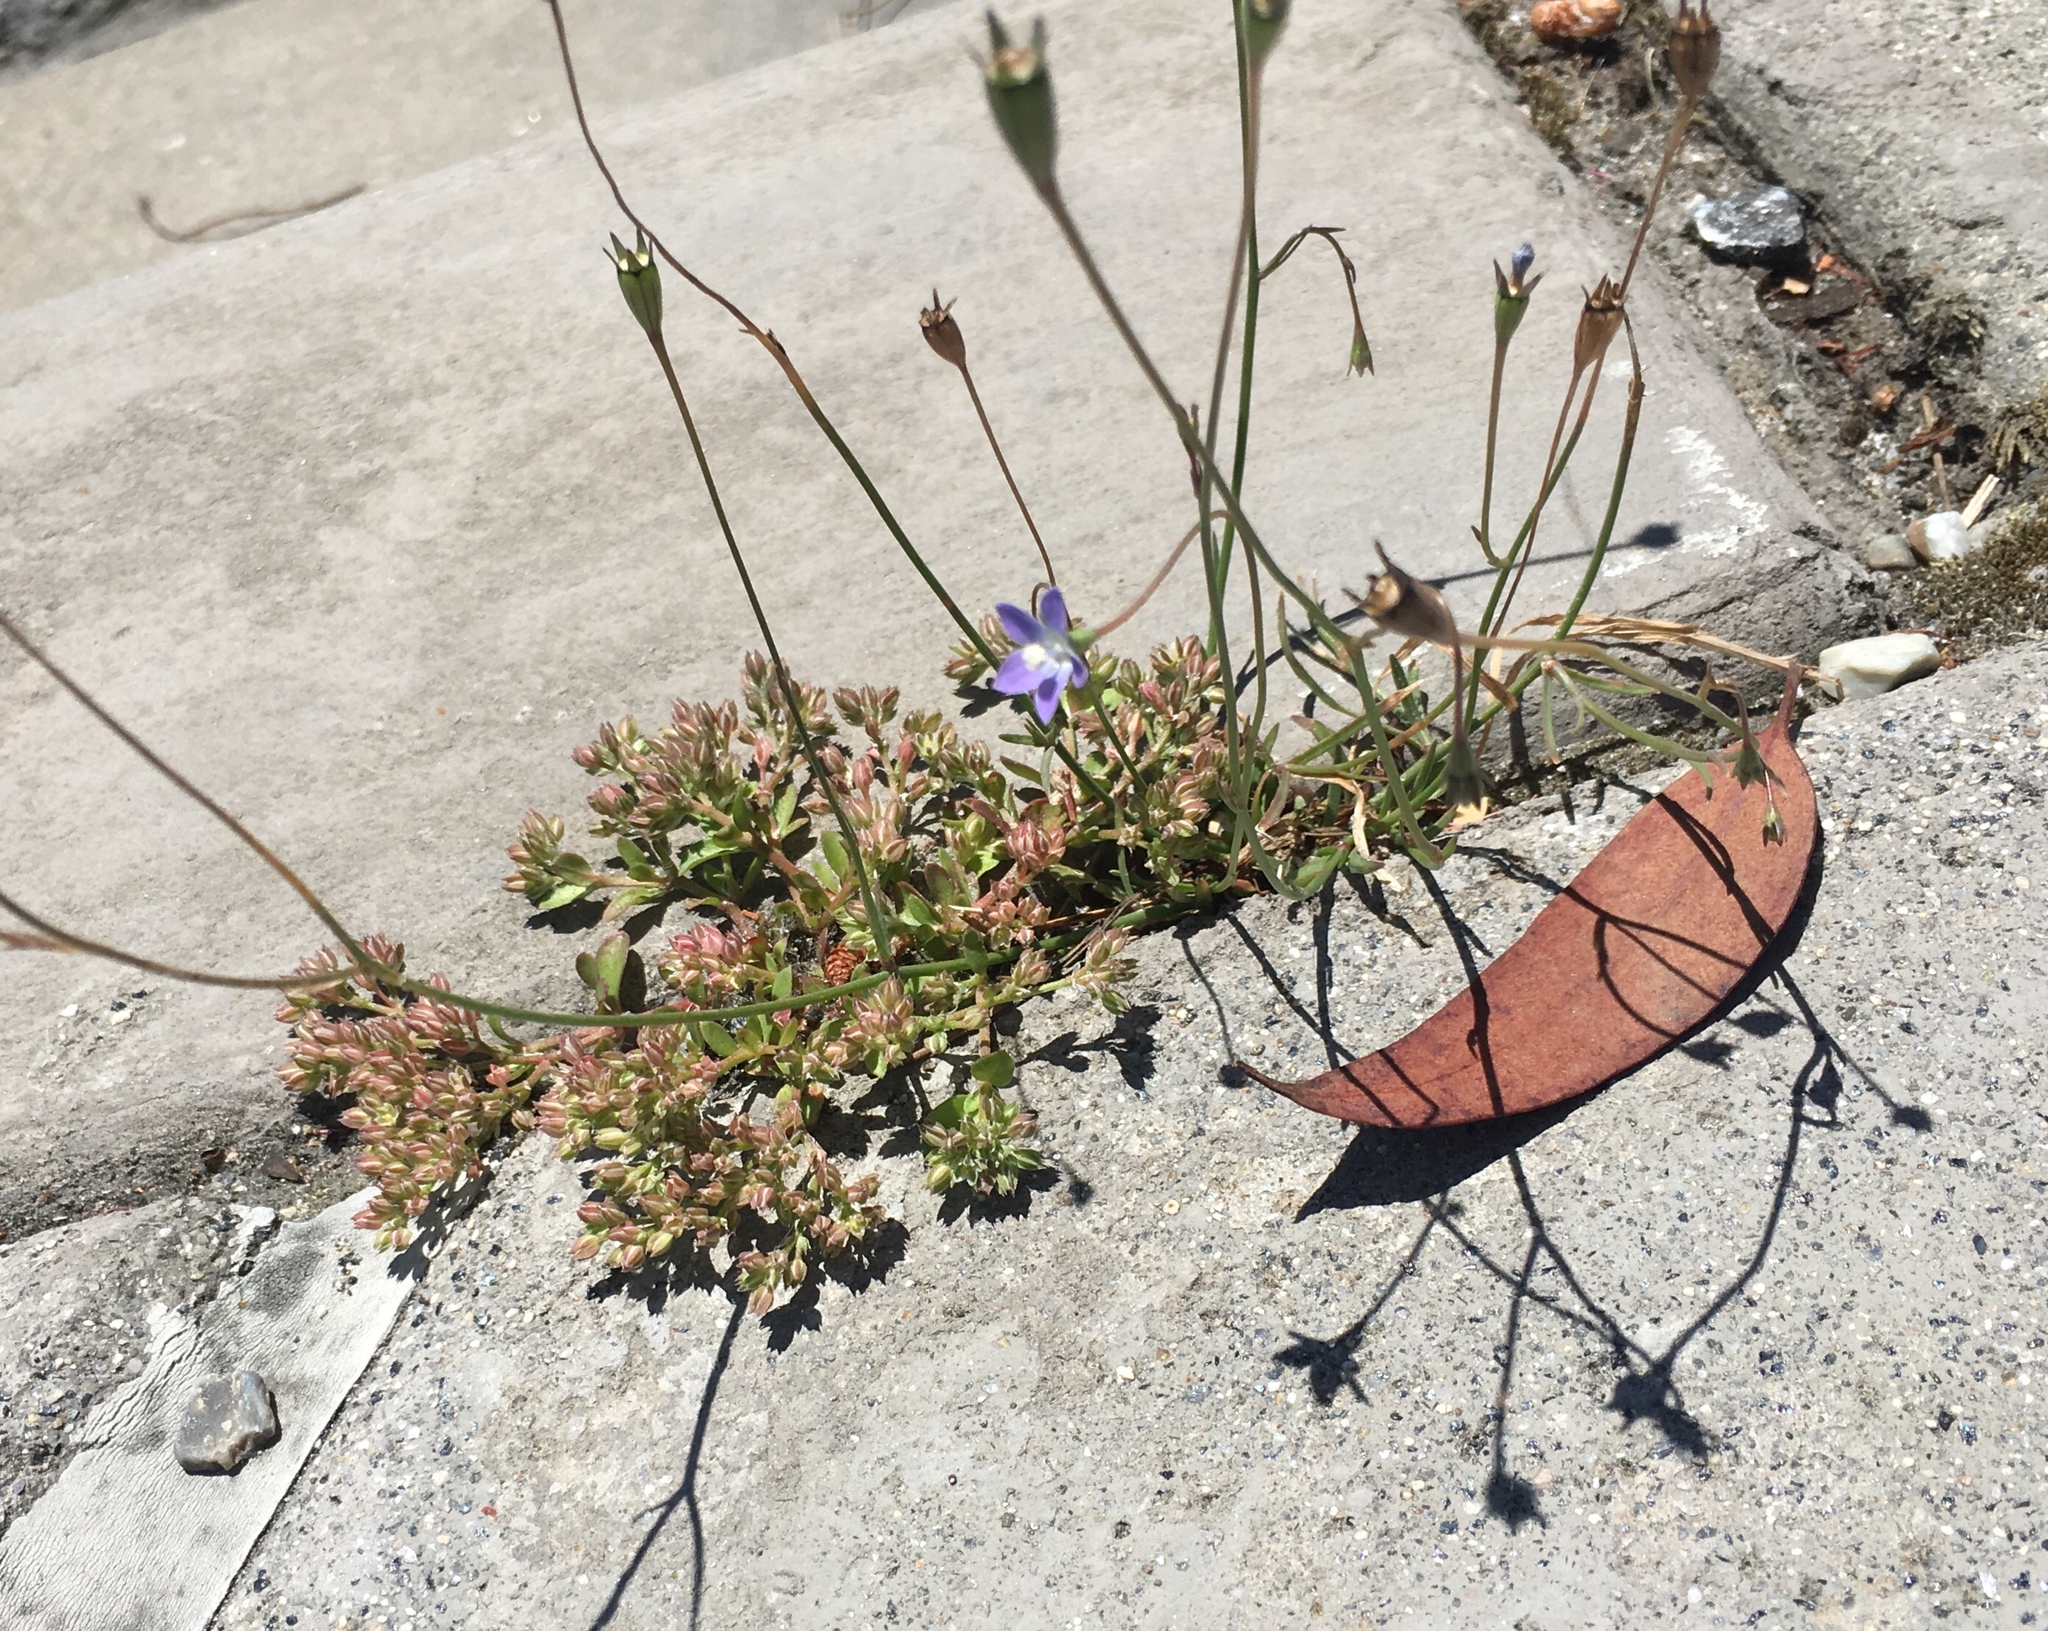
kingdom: Plantae
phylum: Tracheophyta
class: Magnoliopsida
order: Asterales
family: Campanulaceae
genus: Wahlenbergia
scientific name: Wahlenbergia marginata
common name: Southern rockbell
